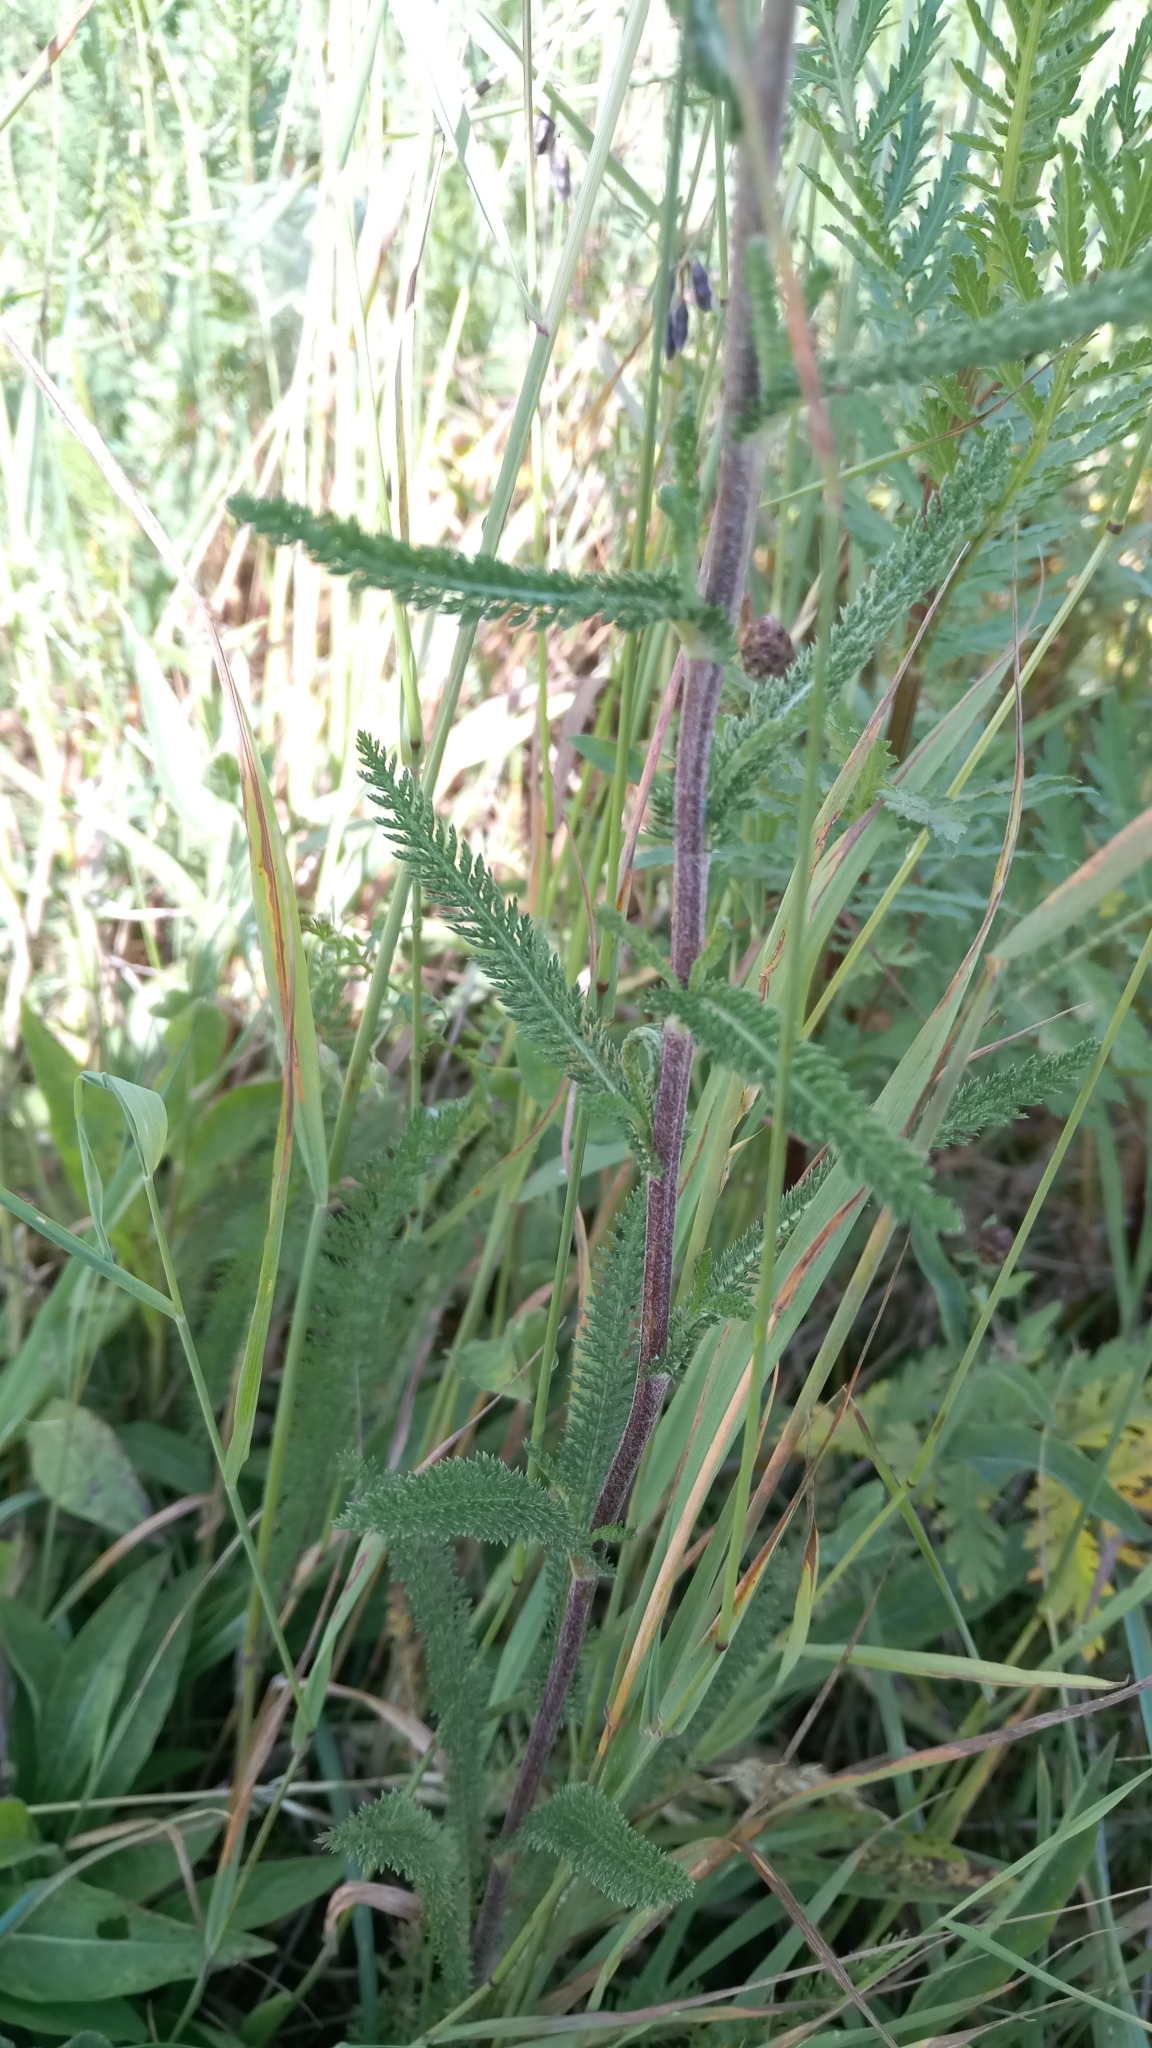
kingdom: Plantae
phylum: Tracheophyta
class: Magnoliopsida
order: Asterales
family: Asteraceae
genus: Achillea
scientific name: Achillea millefolium
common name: Yarrow
